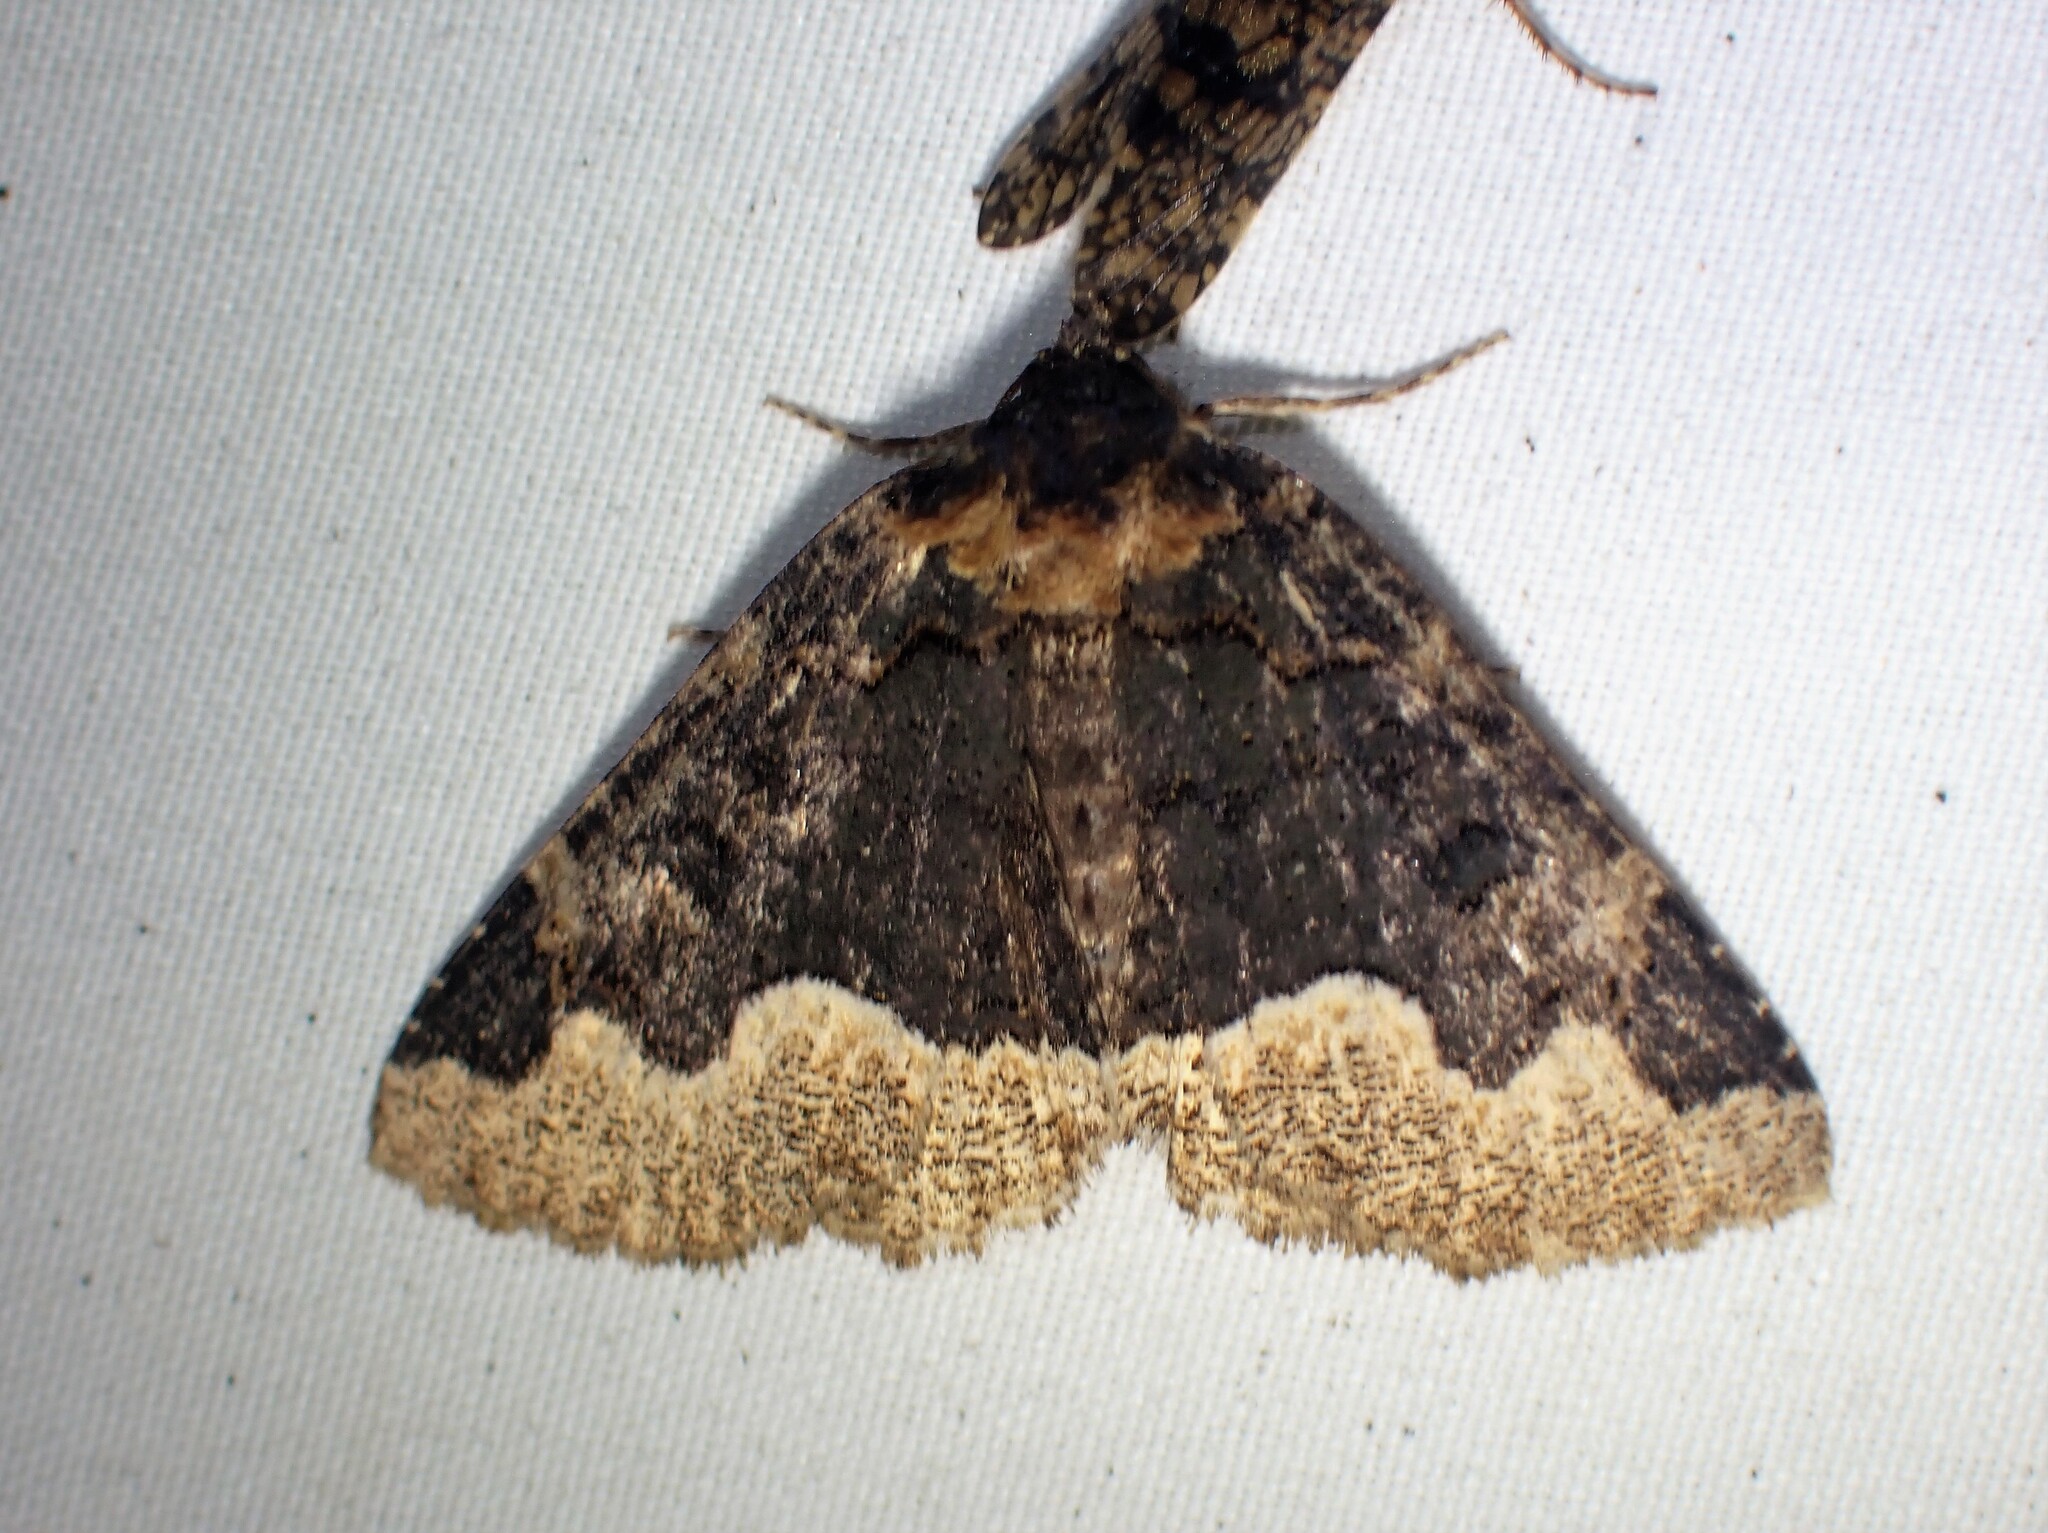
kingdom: Animalia
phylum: Arthropoda
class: Insecta
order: Lepidoptera
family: Erebidae
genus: Zale
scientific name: Zale horrida
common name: Horrid zale moth
